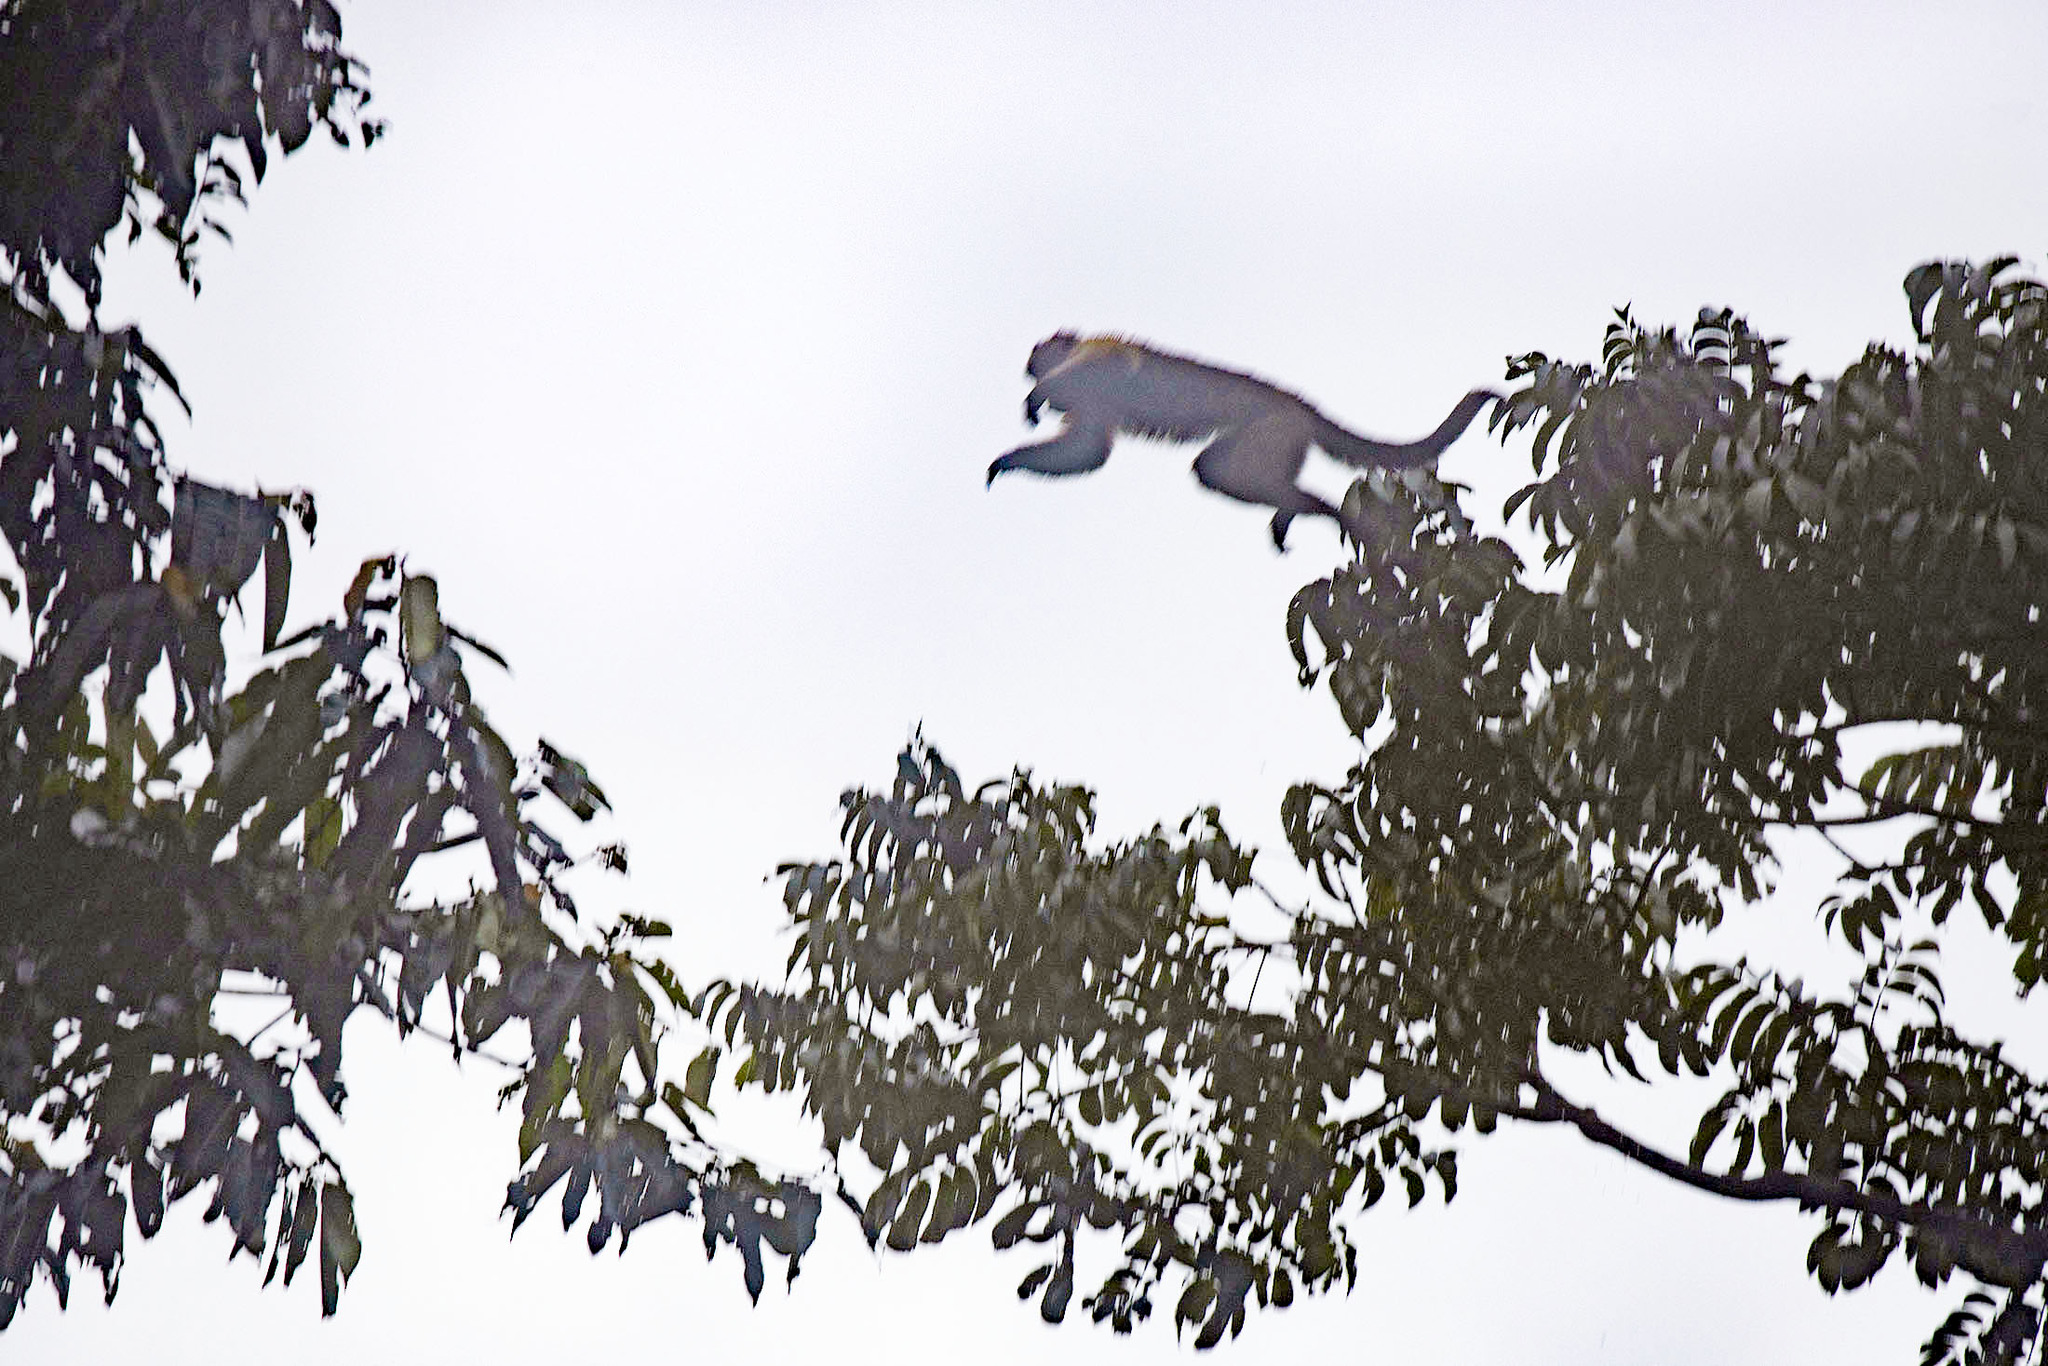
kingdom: Animalia
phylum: Chordata
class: Mammalia
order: Primates
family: Cebidae
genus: Sapajus
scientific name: Sapajus apella
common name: Tufted capuchin
